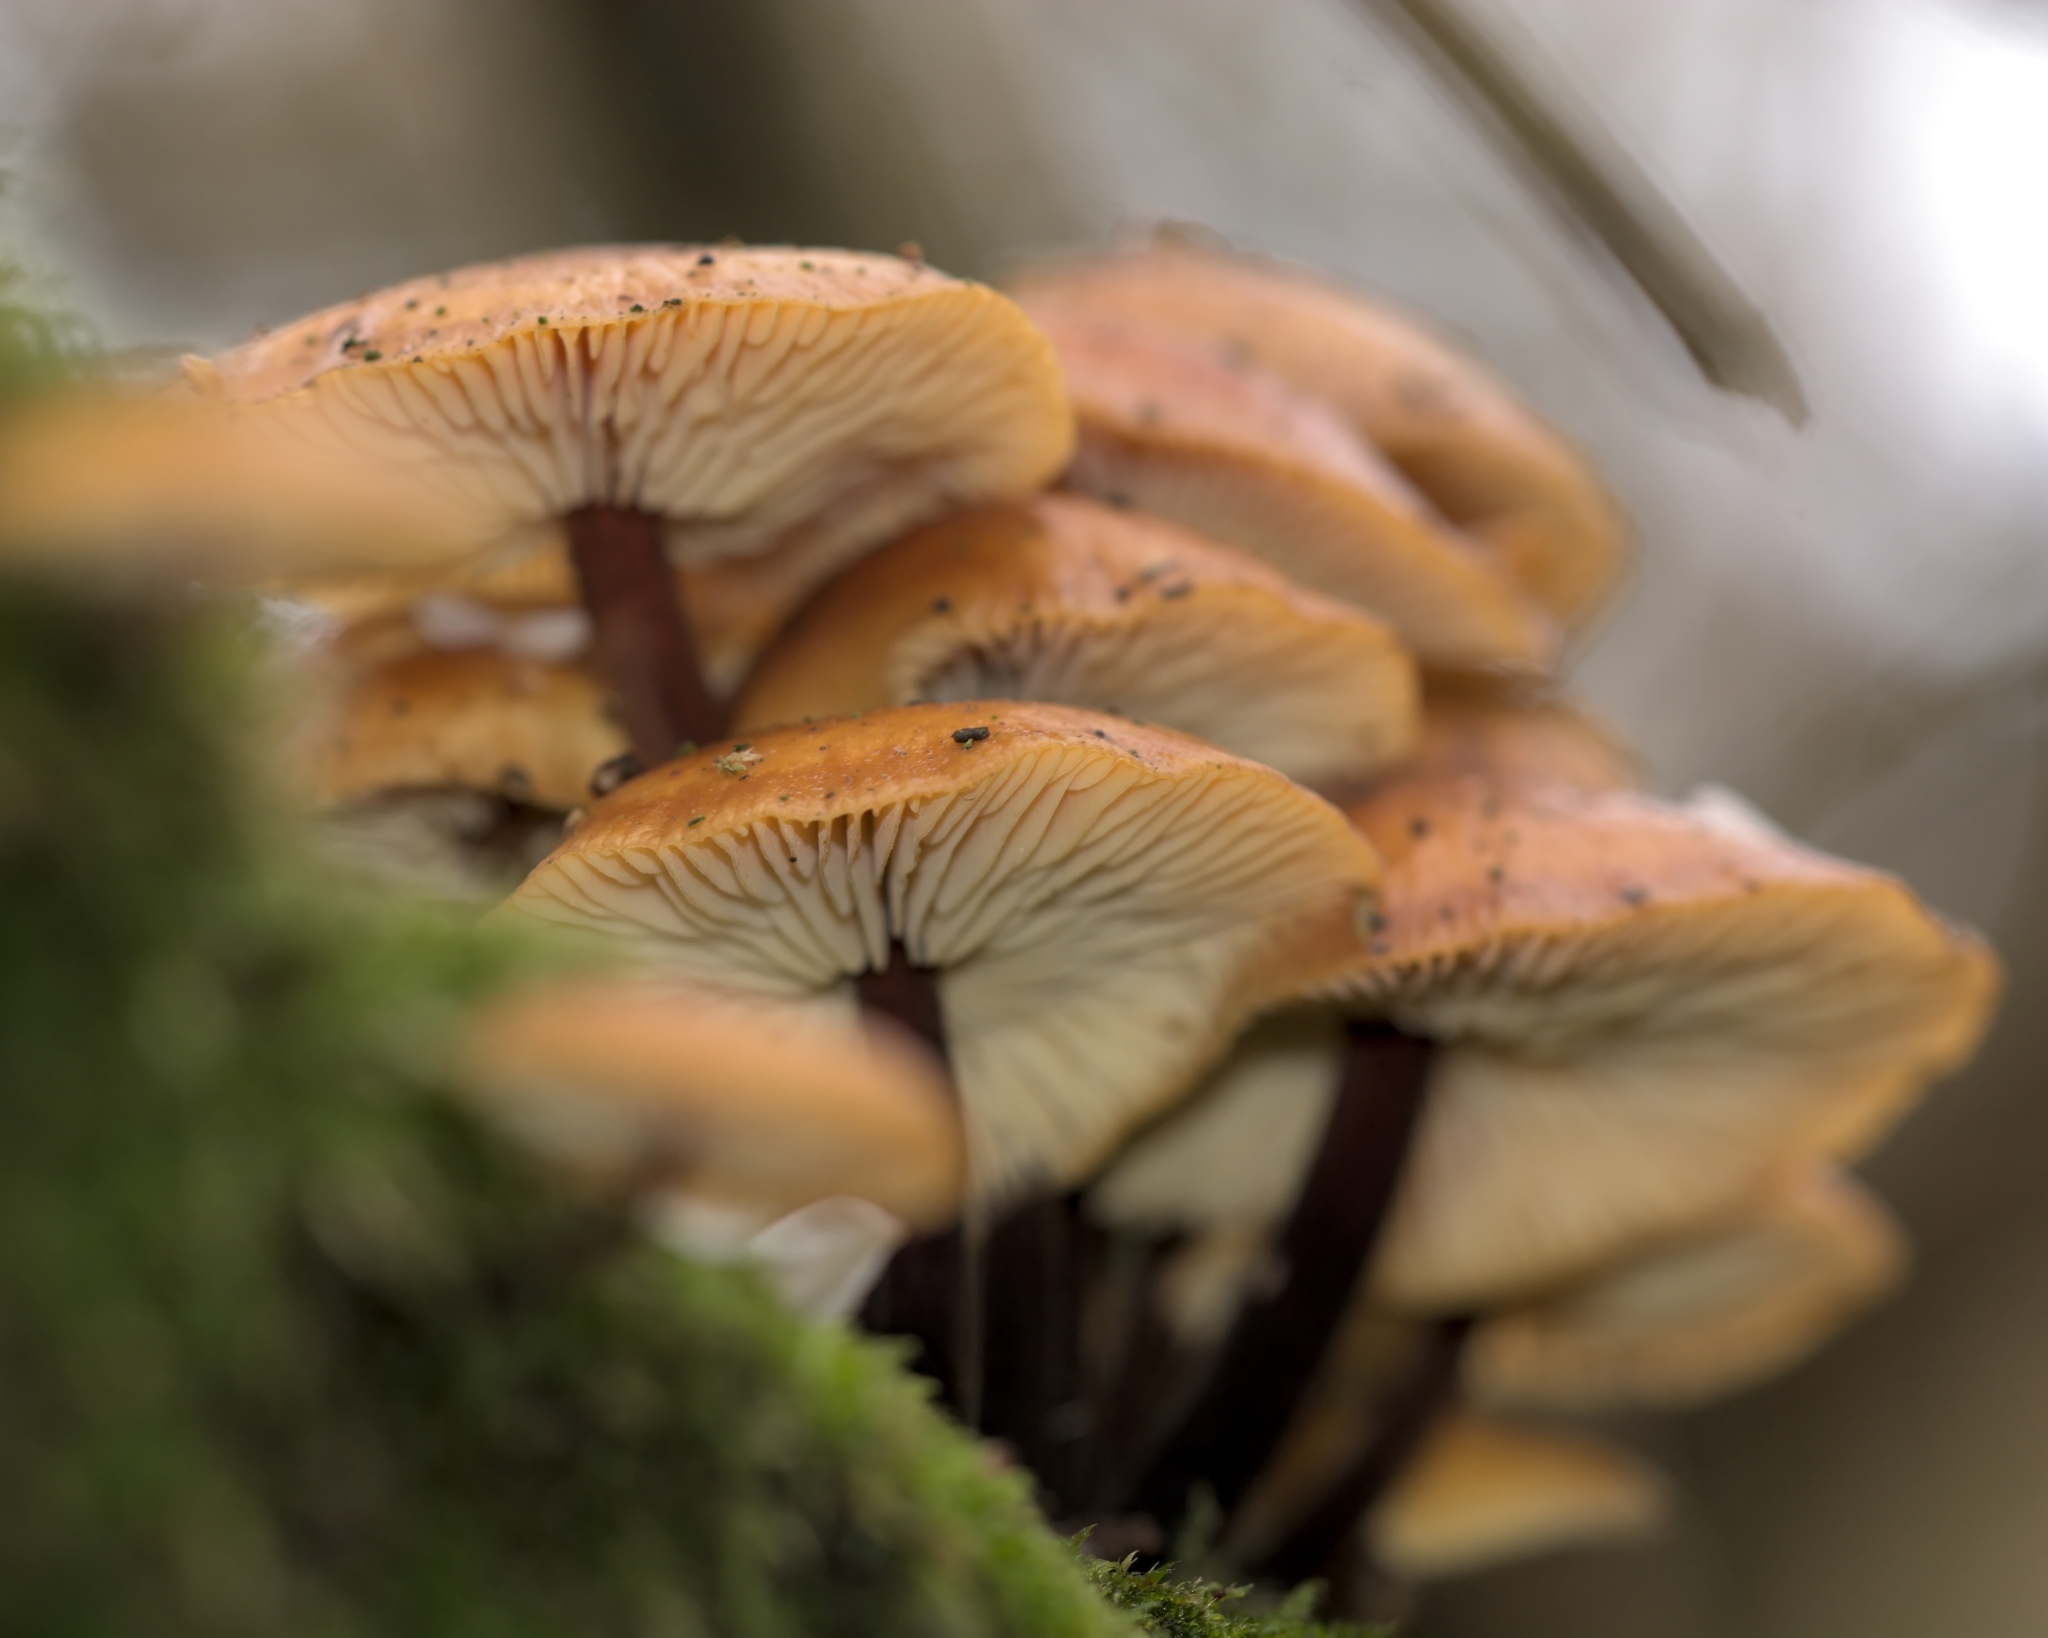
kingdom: Fungi
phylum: Basidiomycota
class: Agaricomycetes
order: Agaricales
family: Physalacriaceae
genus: Flammulina
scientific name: Flammulina
